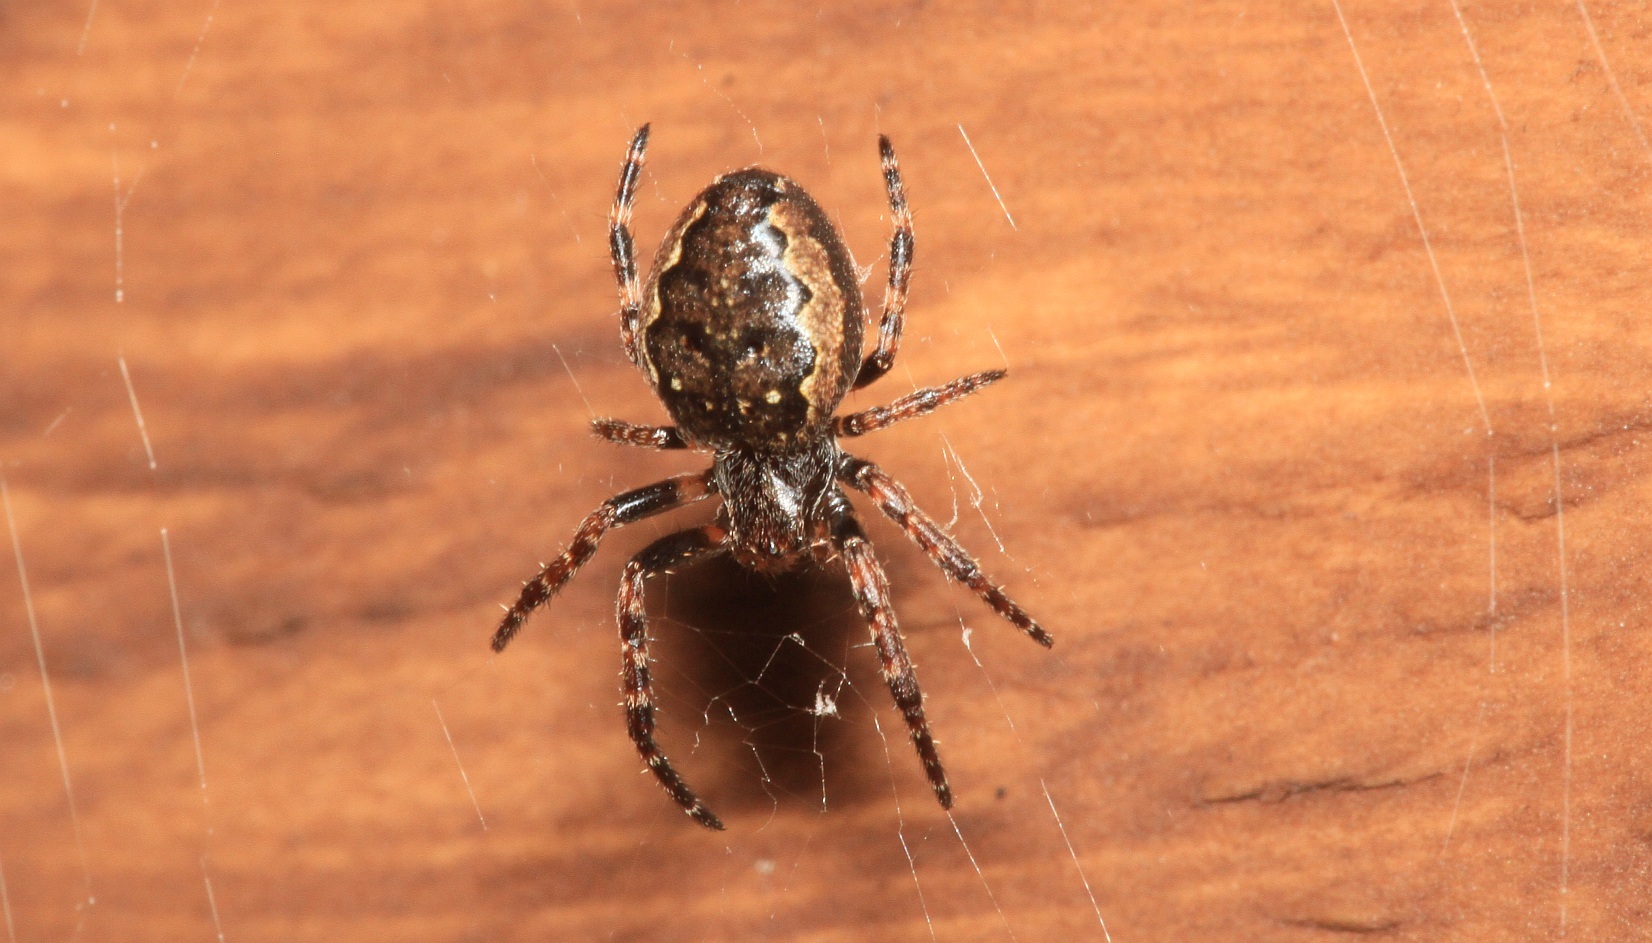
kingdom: Animalia
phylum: Arthropoda
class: Arachnida
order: Araneae
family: Araneidae
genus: Nuctenea
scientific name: Nuctenea umbratica
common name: Toad spider
